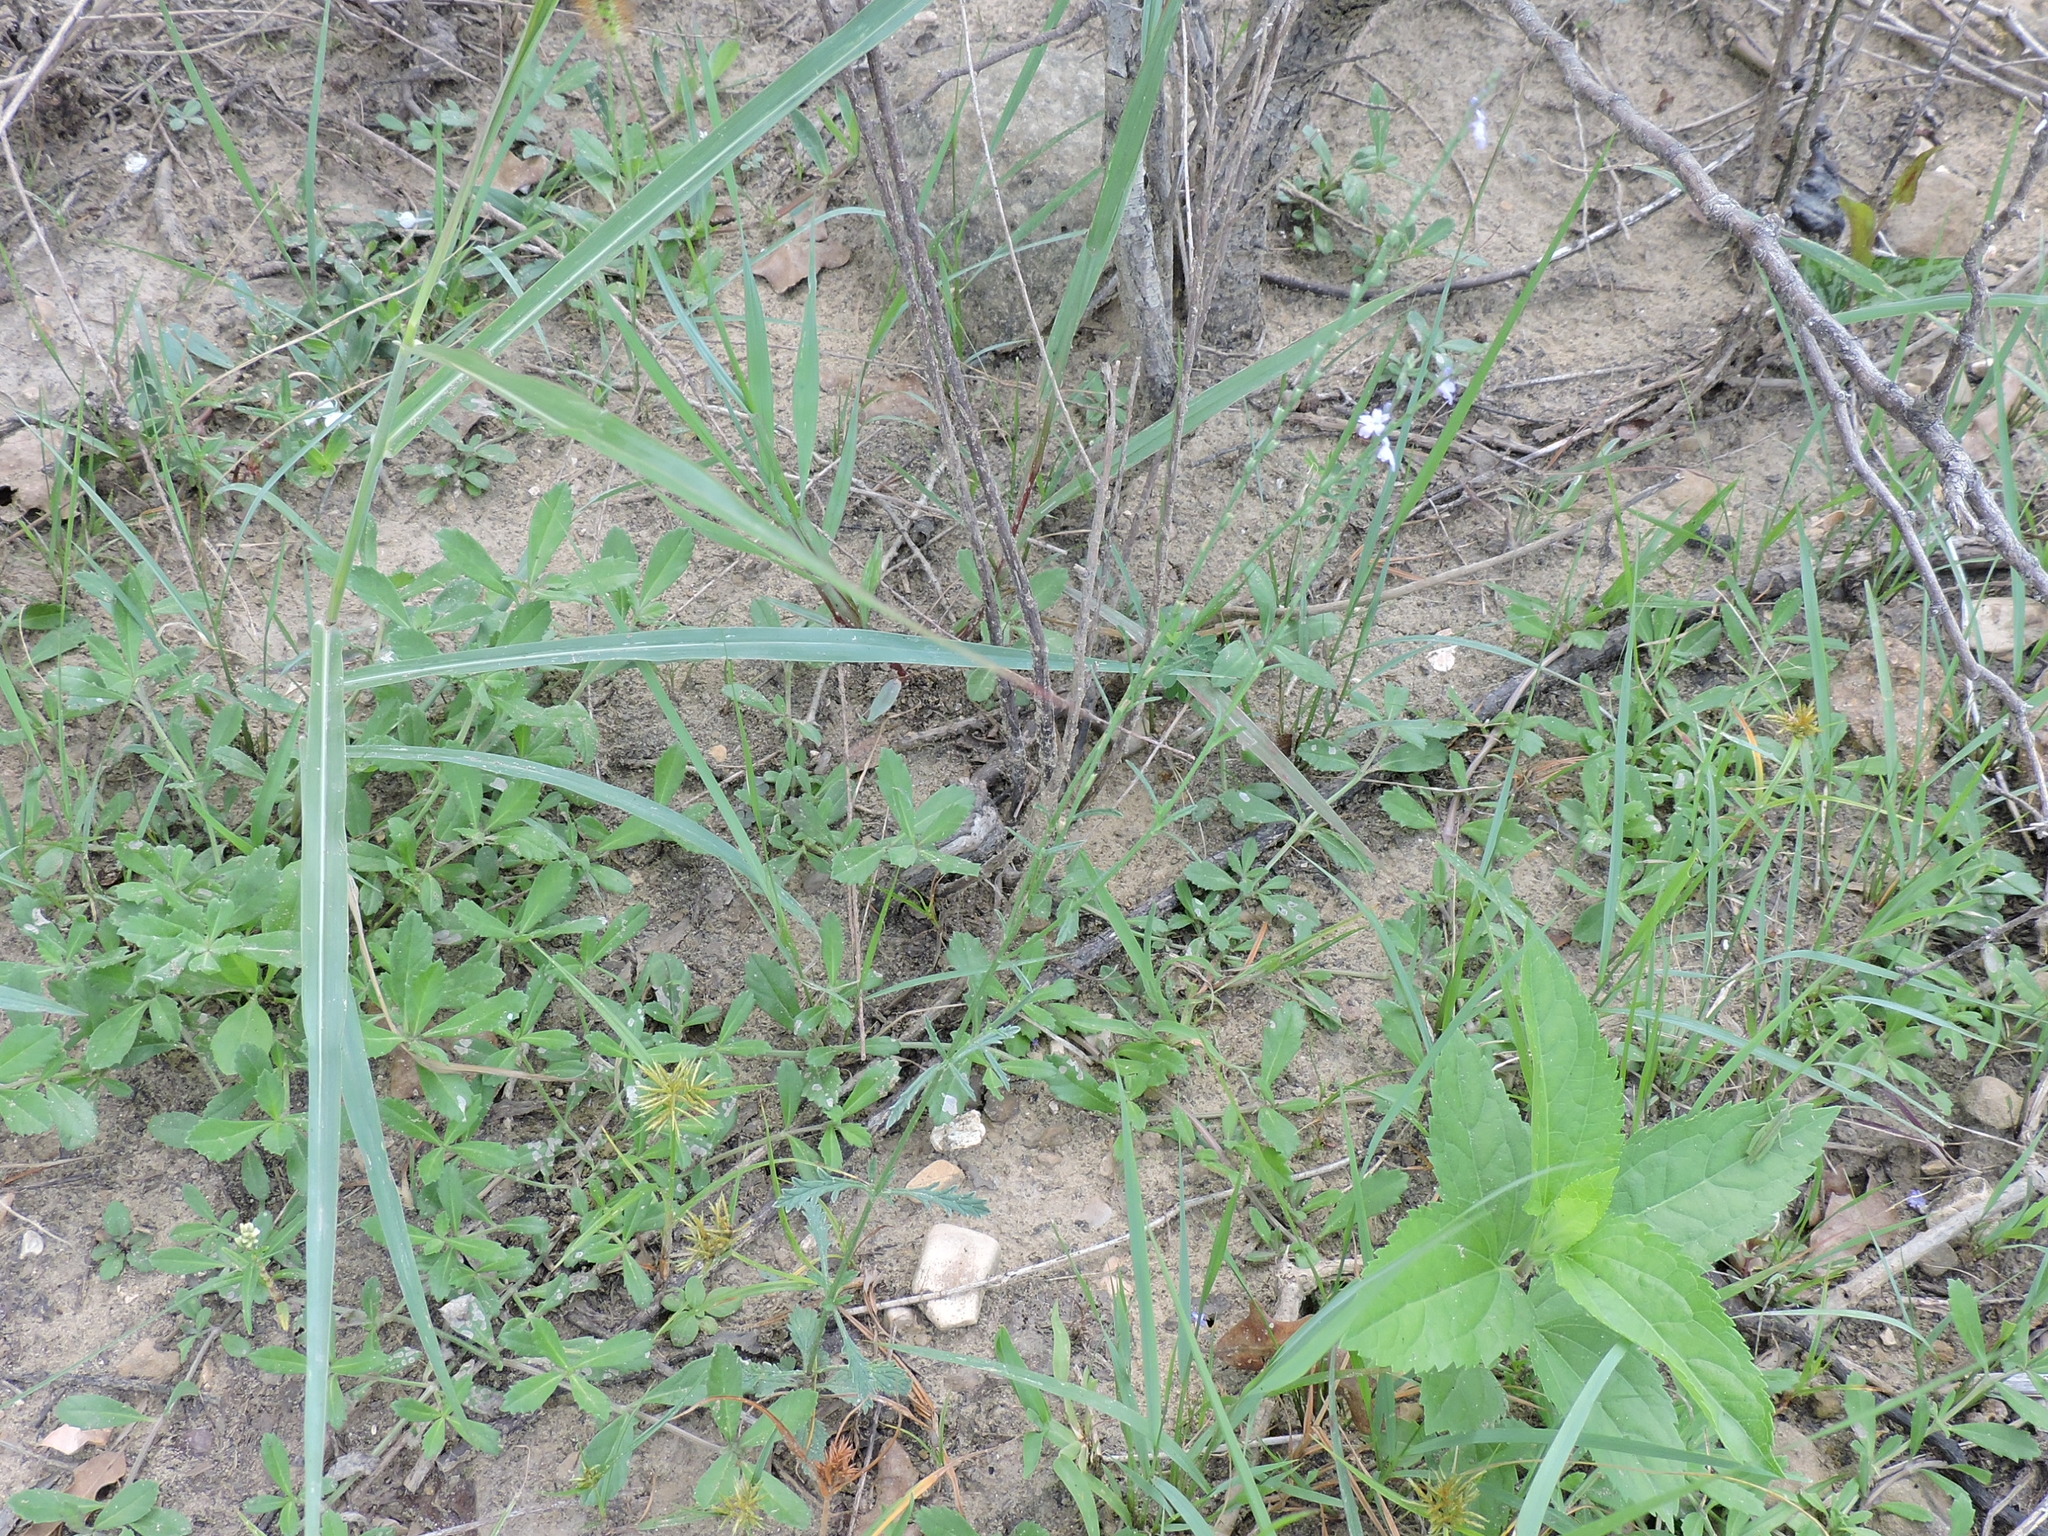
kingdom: Plantae
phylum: Tracheophyta
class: Magnoliopsida
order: Lamiales
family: Verbenaceae
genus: Verbena
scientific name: Verbena halei
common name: Texas vervain
